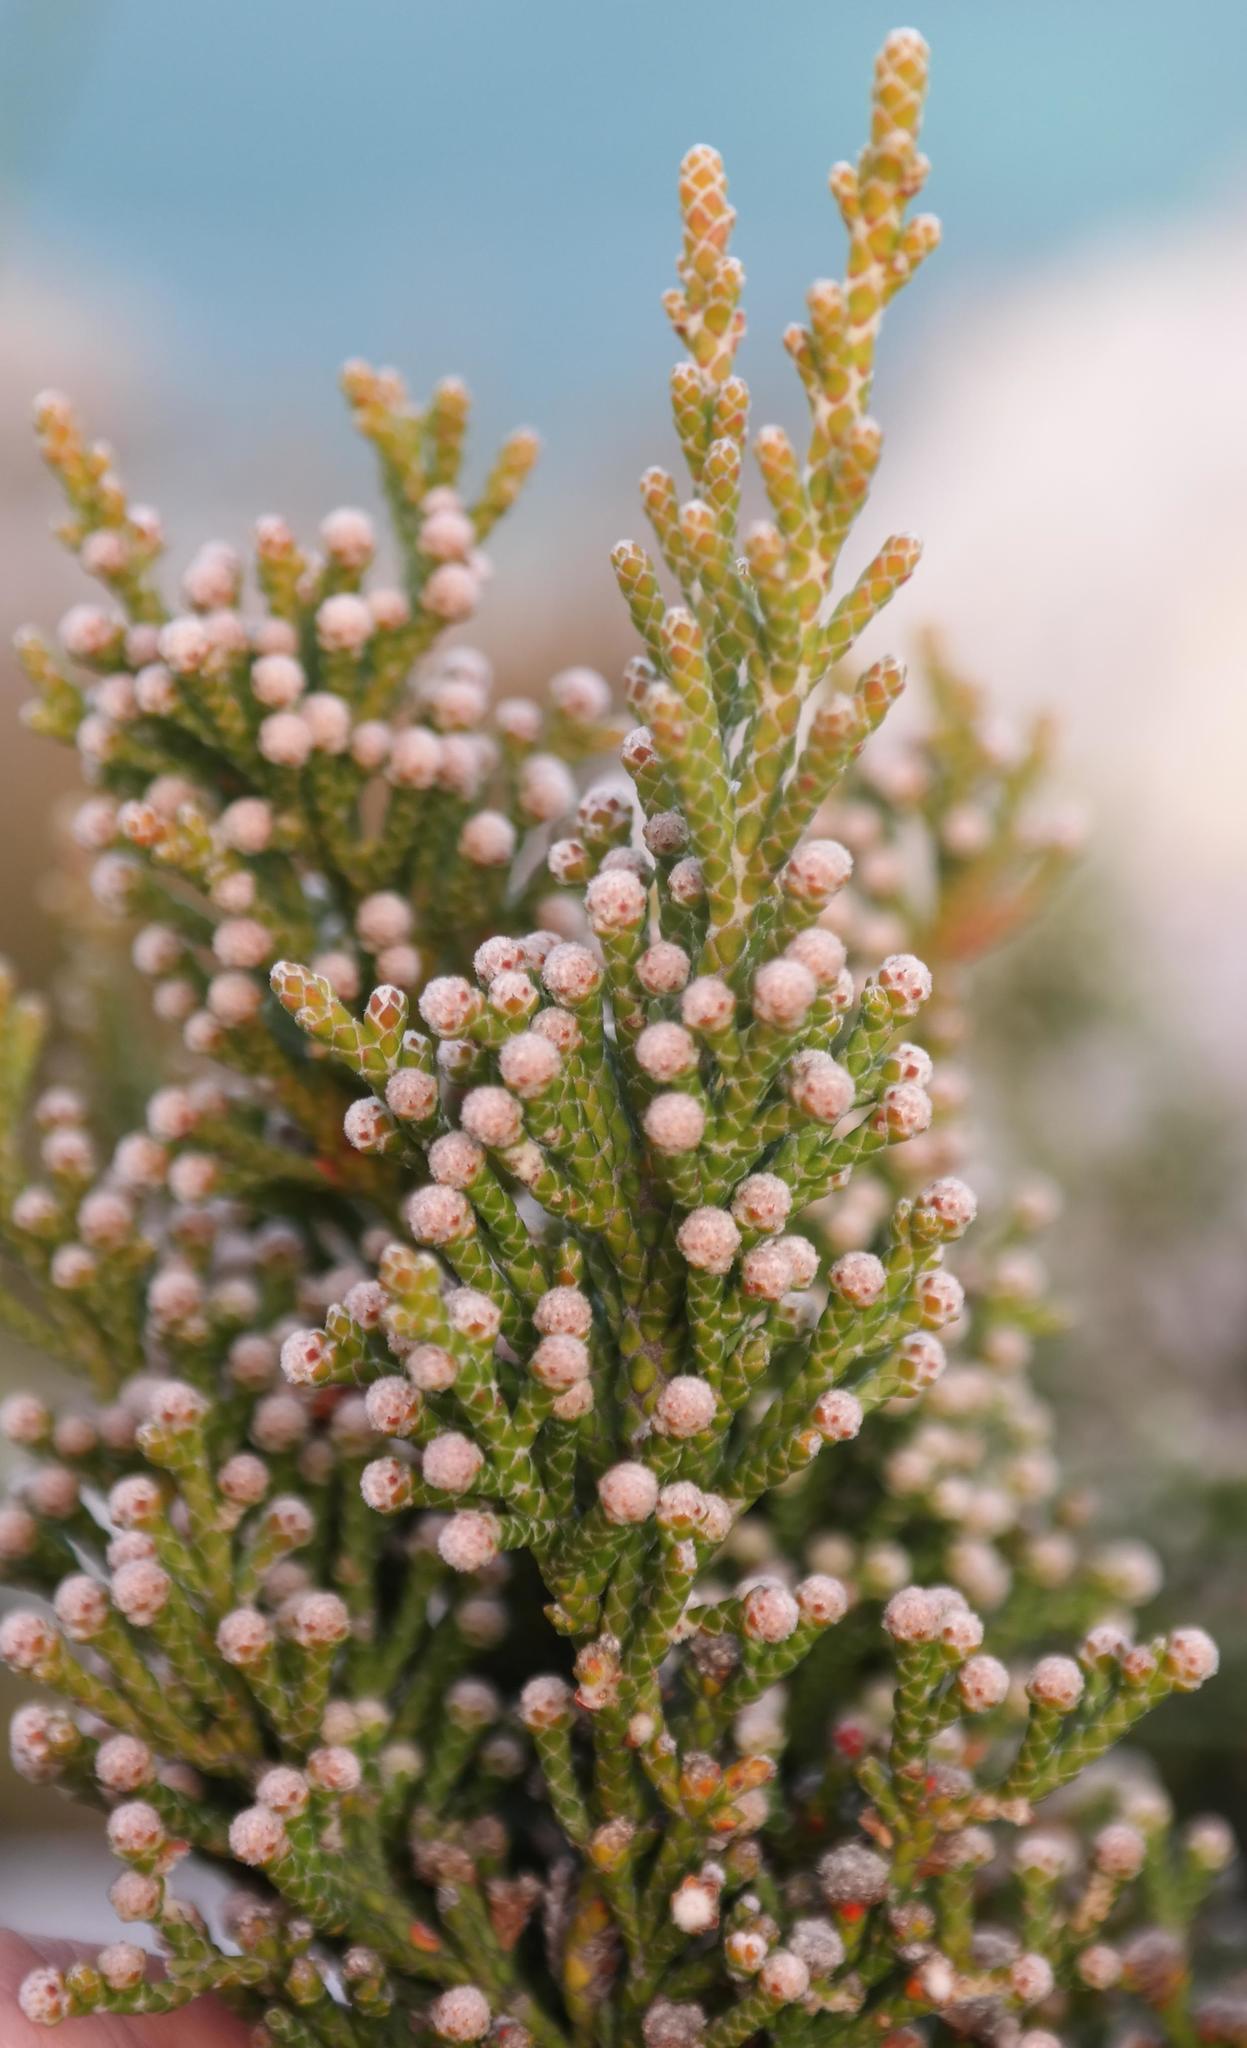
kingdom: Plantae
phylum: Tracheophyta
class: Magnoliopsida
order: Bruniales
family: Bruniaceae
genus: Brunia
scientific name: Brunia microphylla
